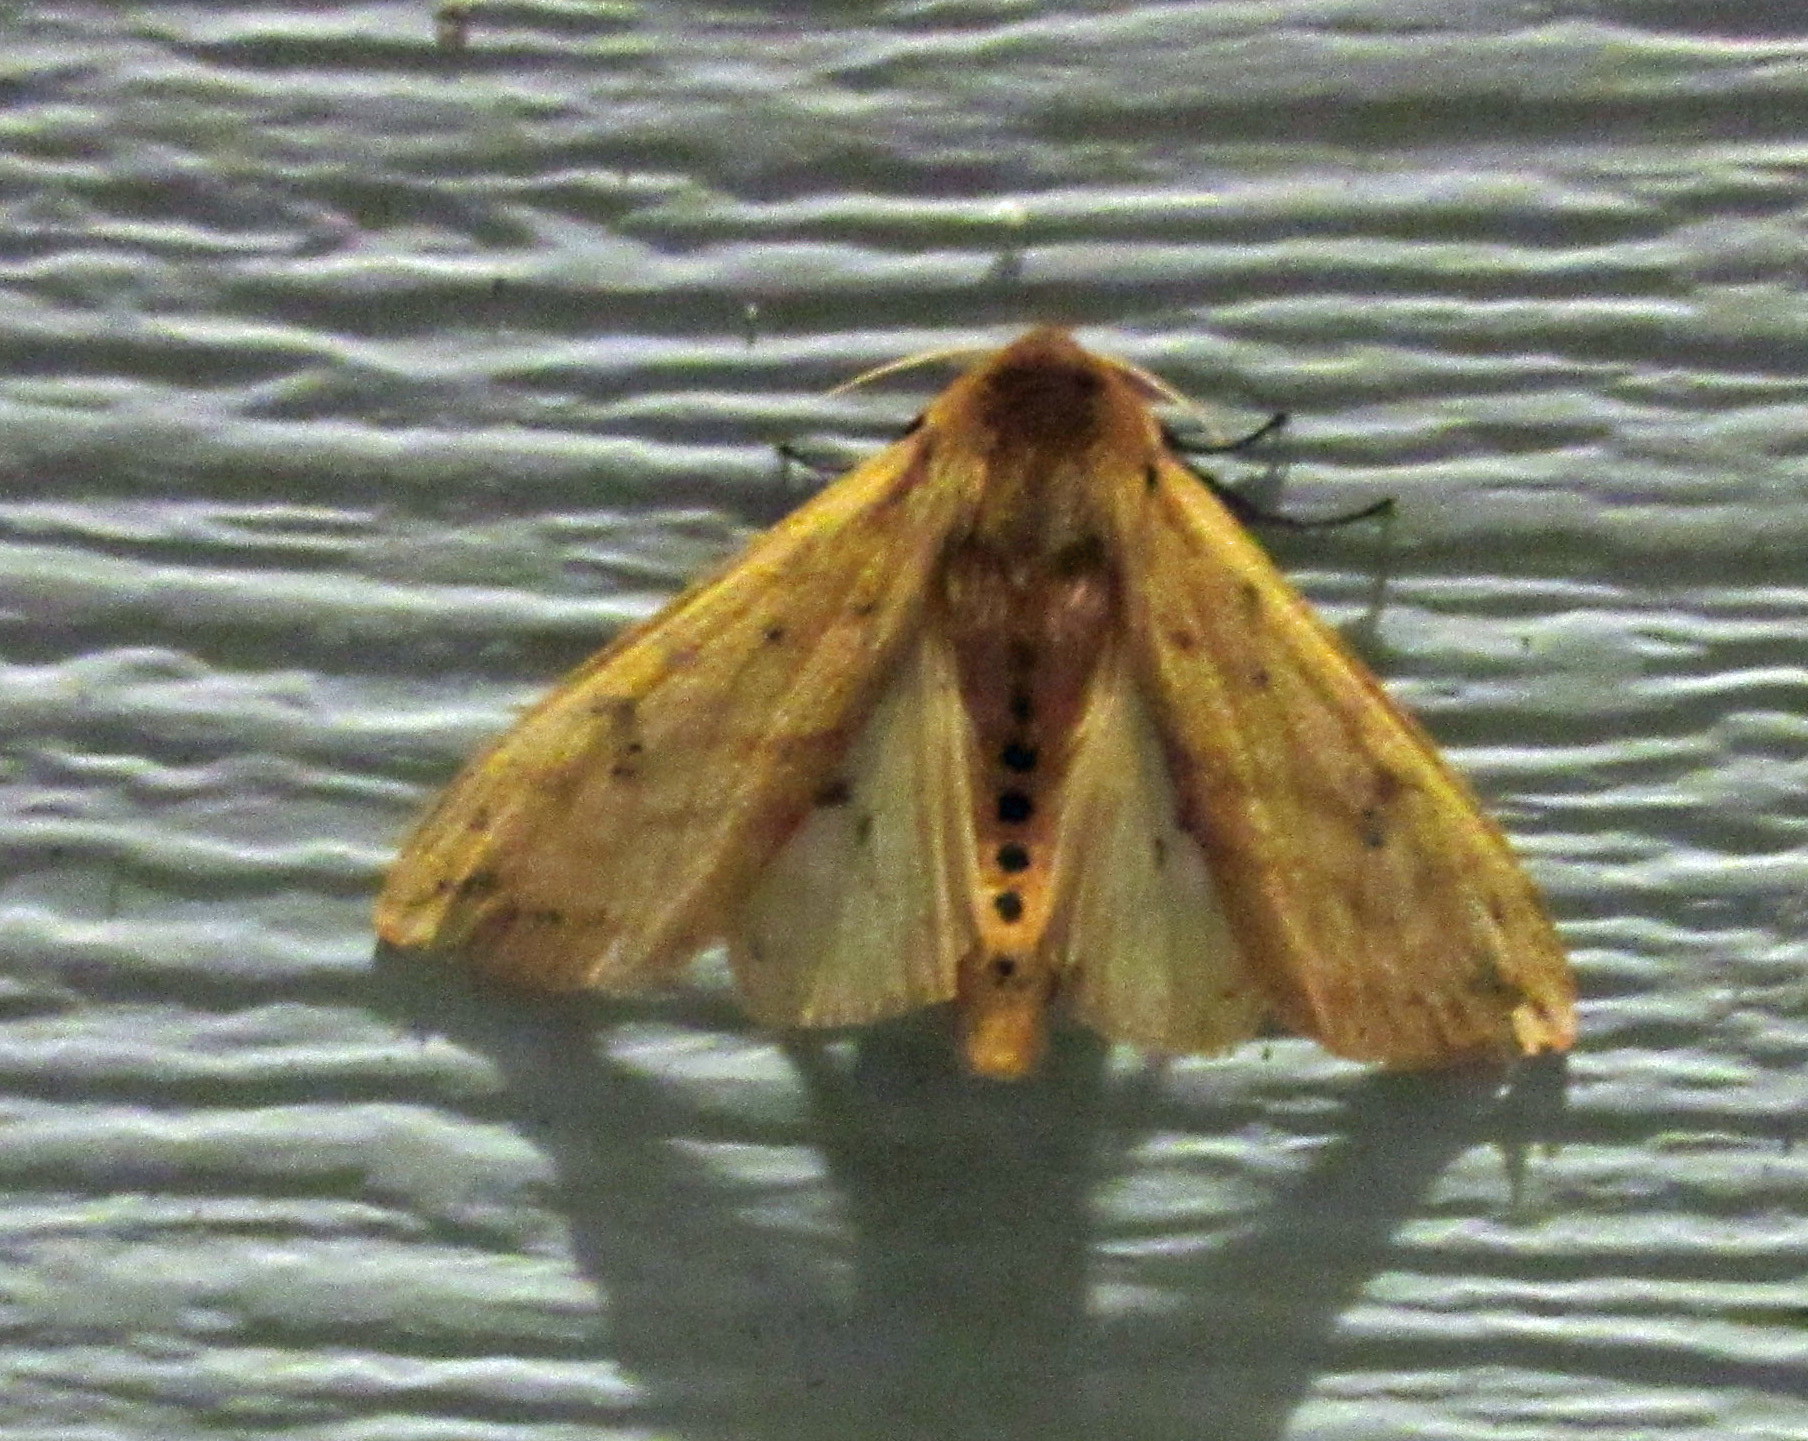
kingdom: Animalia
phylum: Arthropoda
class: Insecta
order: Lepidoptera
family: Erebidae
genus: Pyrrharctia
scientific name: Pyrrharctia isabella
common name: Isabella tiger moth
